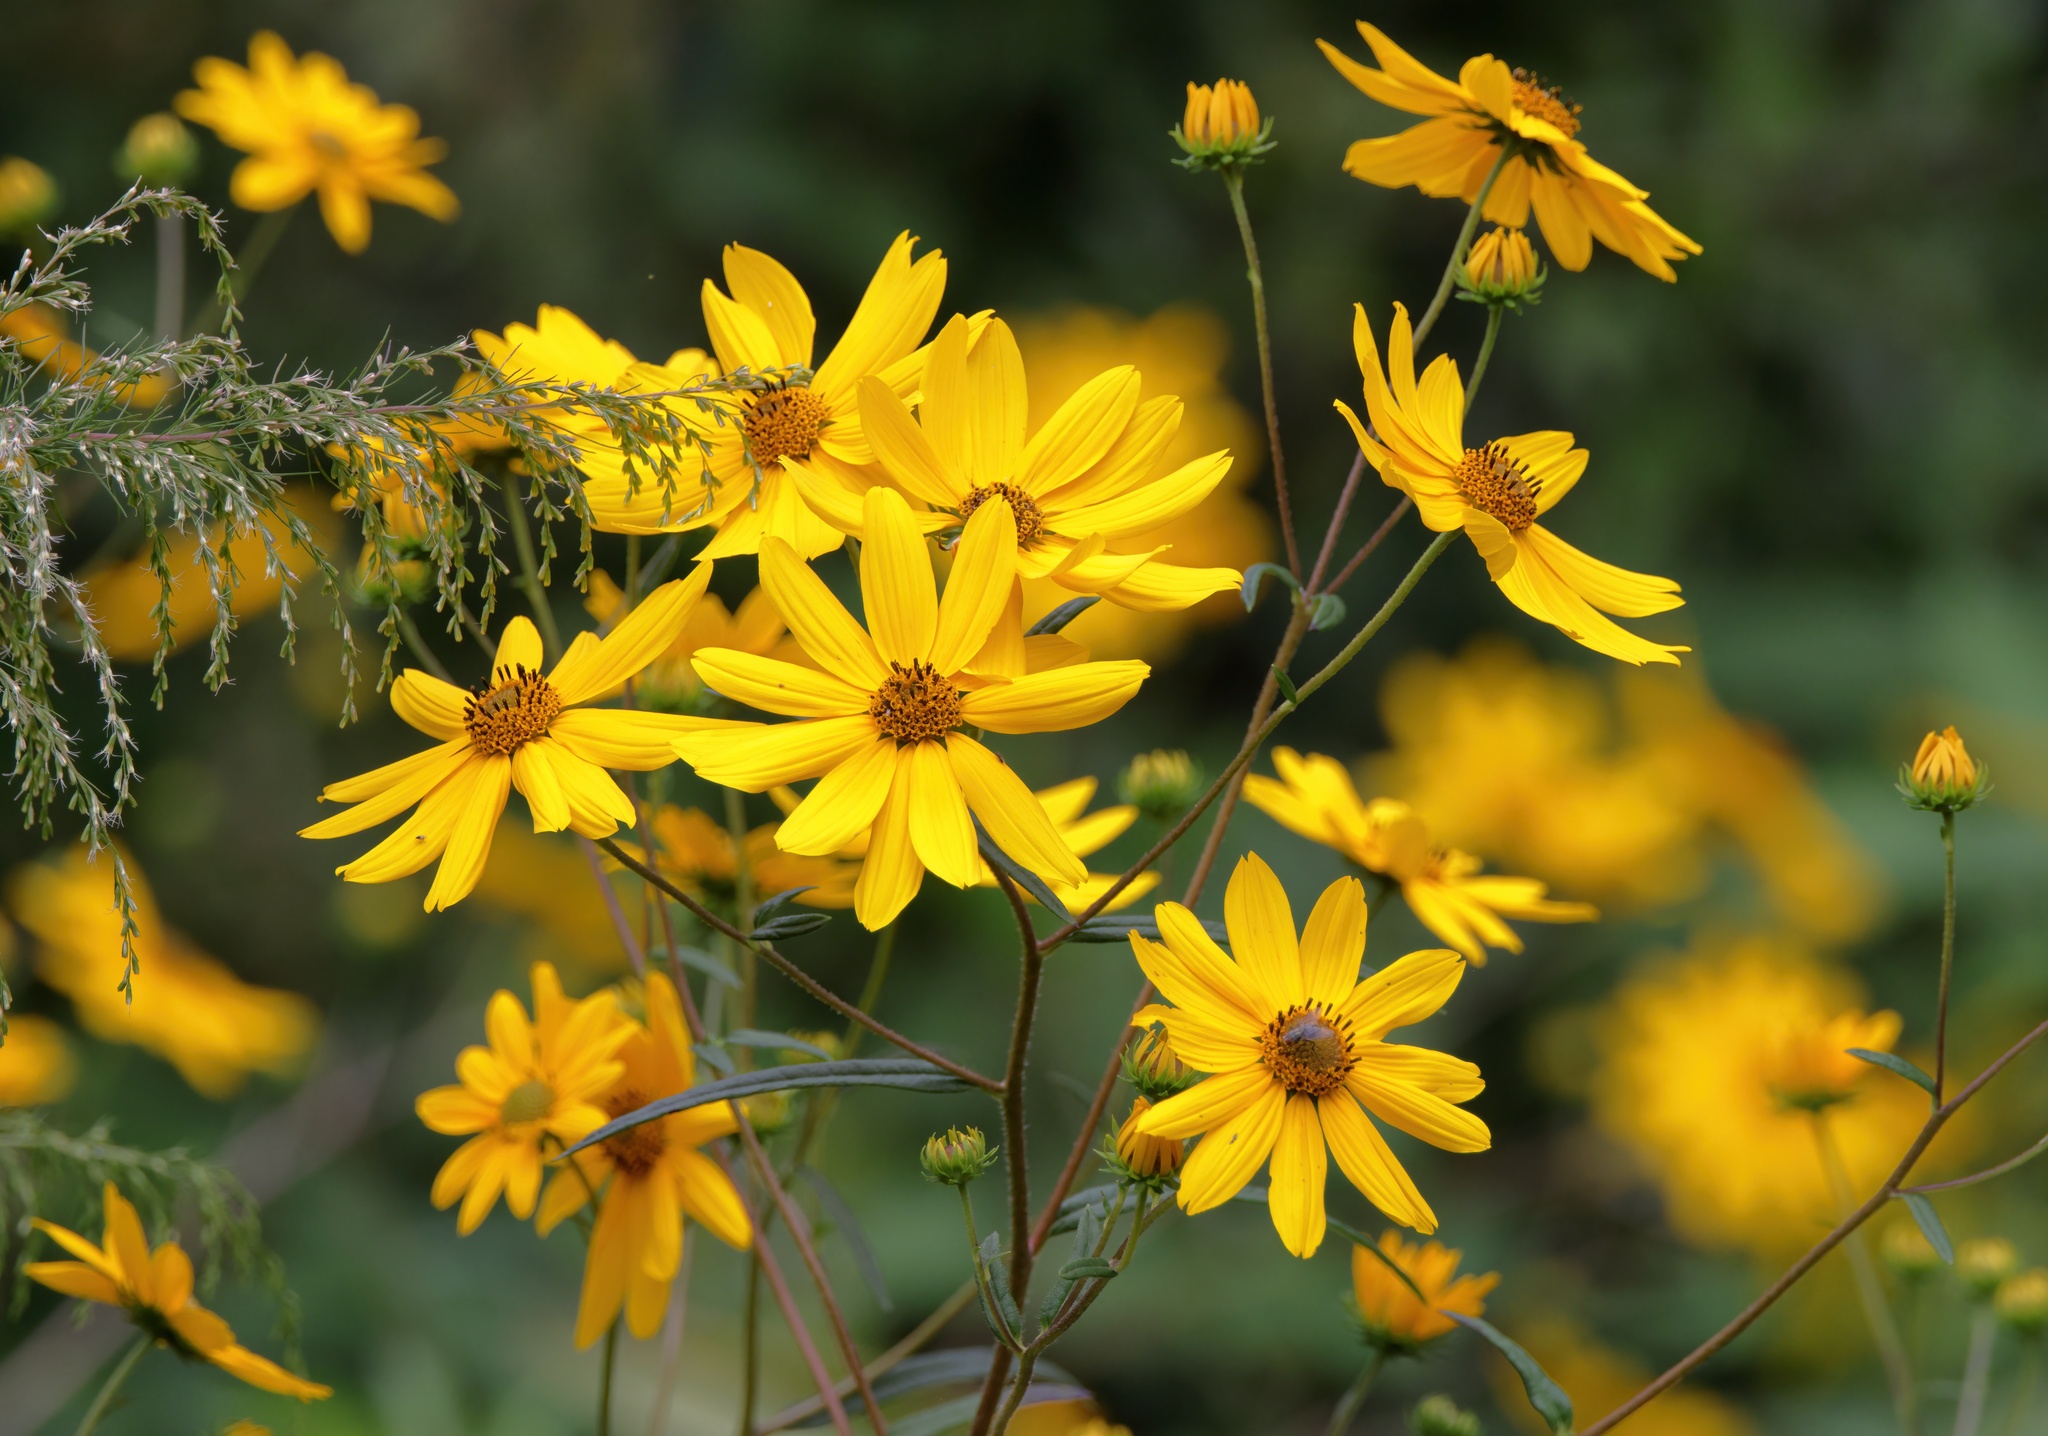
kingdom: Plantae
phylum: Tracheophyta
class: Magnoliopsida
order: Asterales
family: Asteraceae
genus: Helianthus
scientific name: Helianthus angustifolius
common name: Swamp sunflower
